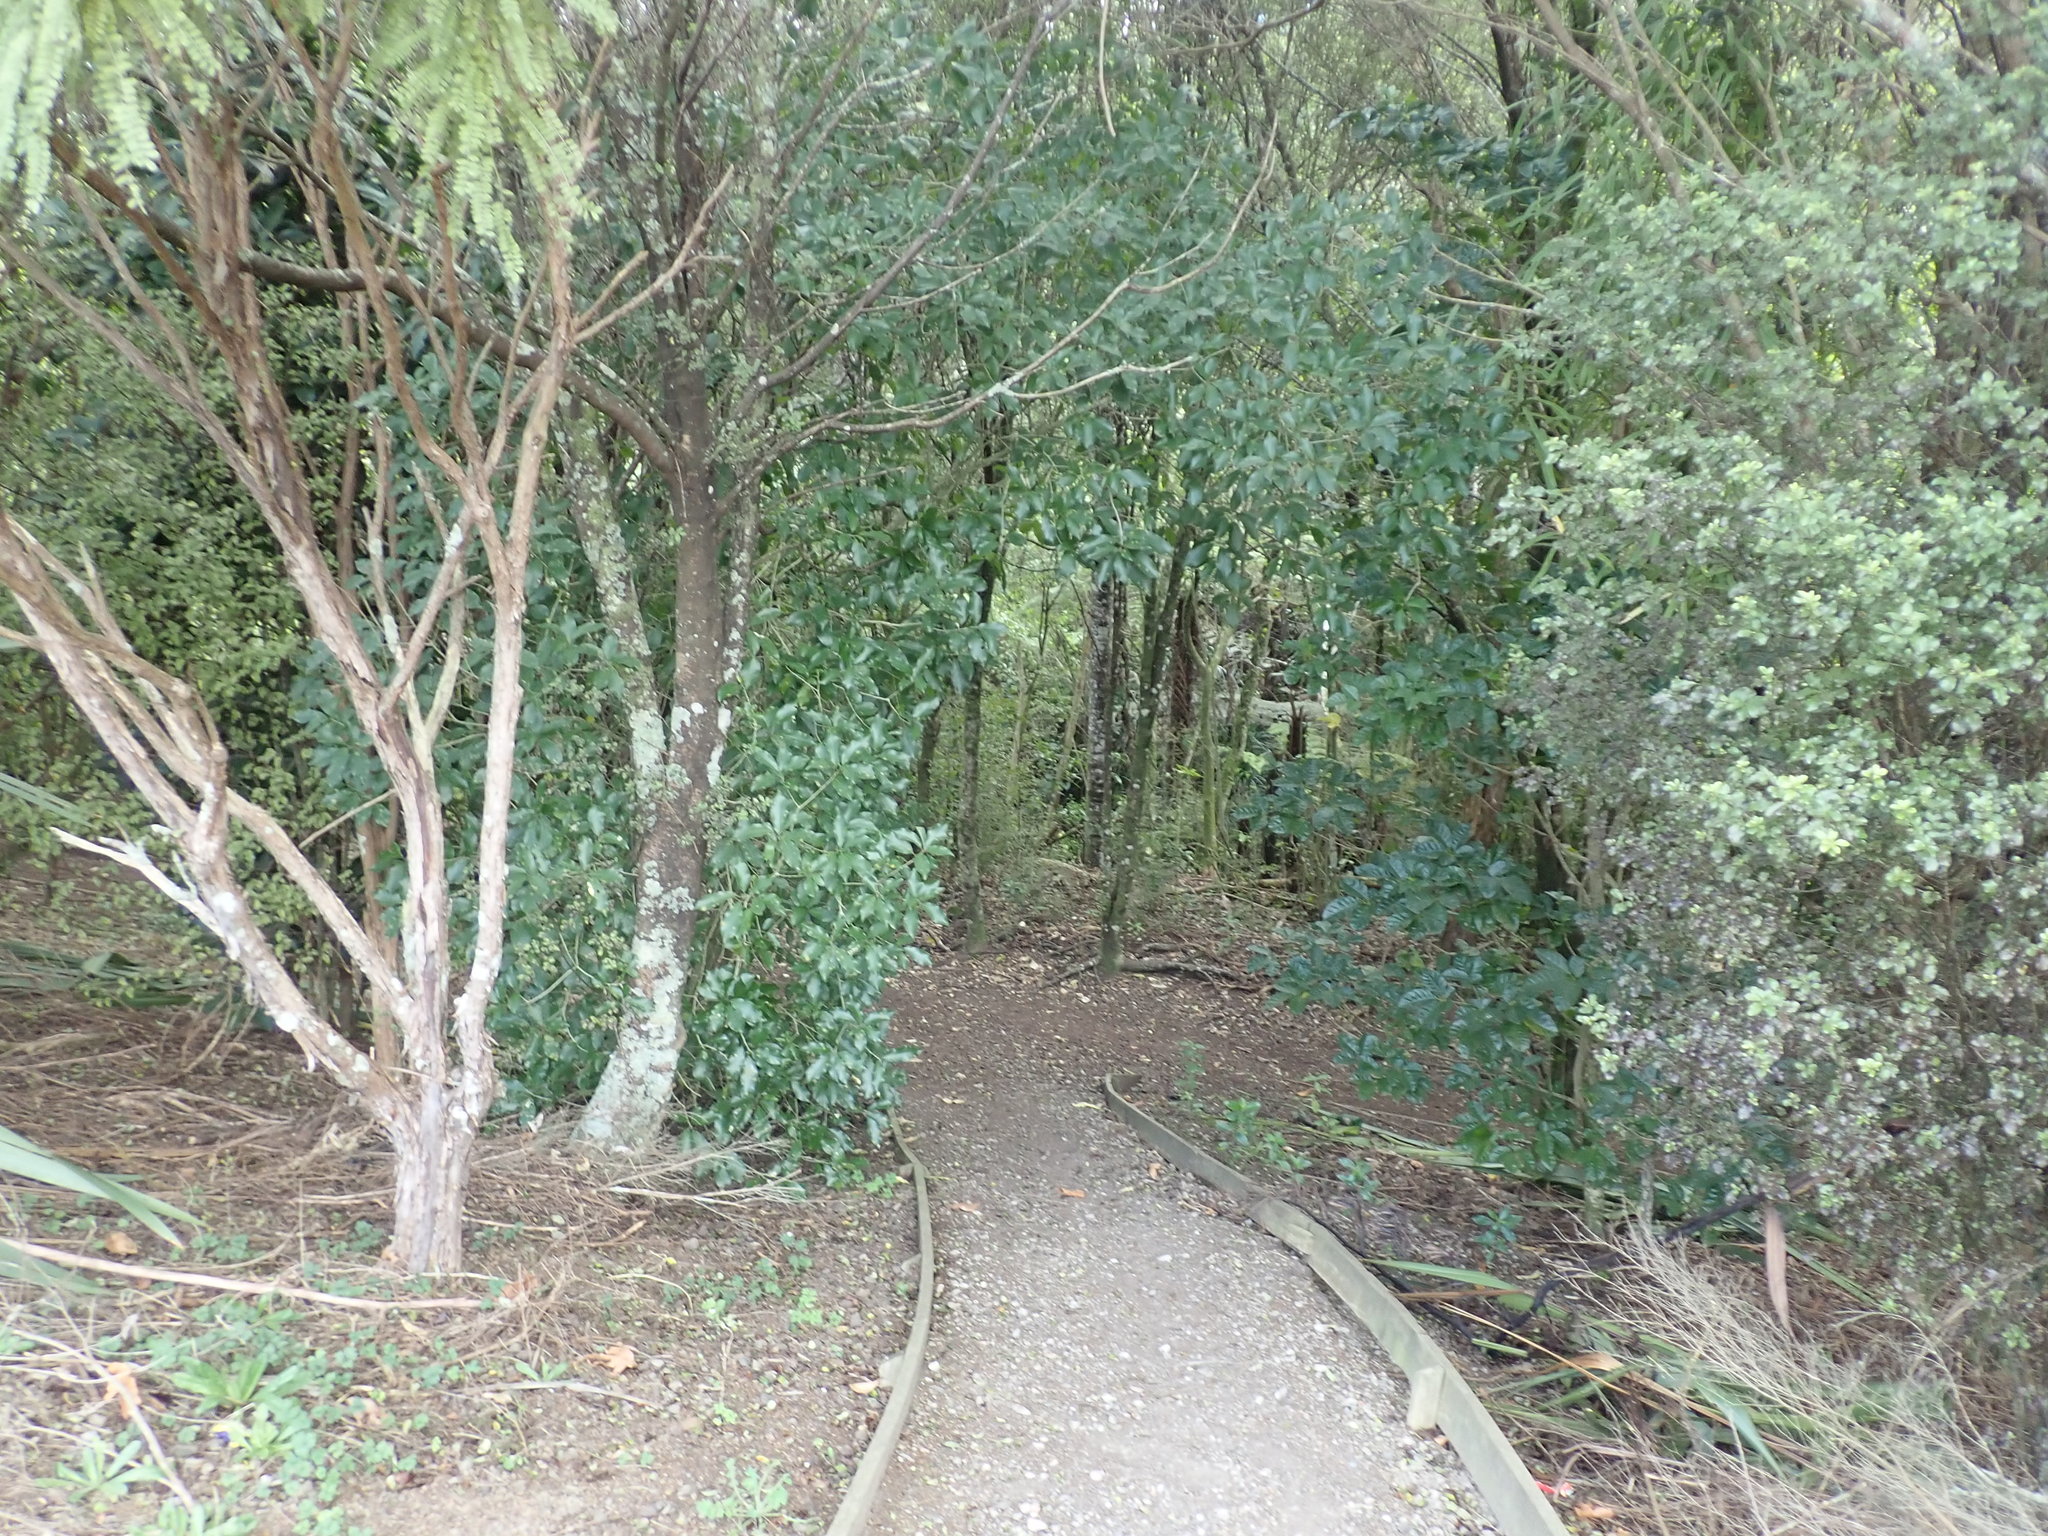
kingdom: Plantae
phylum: Tracheophyta
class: Magnoliopsida
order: Apiales
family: Pittosporaceae
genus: Pittosporum
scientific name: Pittosporum tenuifolium
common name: Kohuhu
